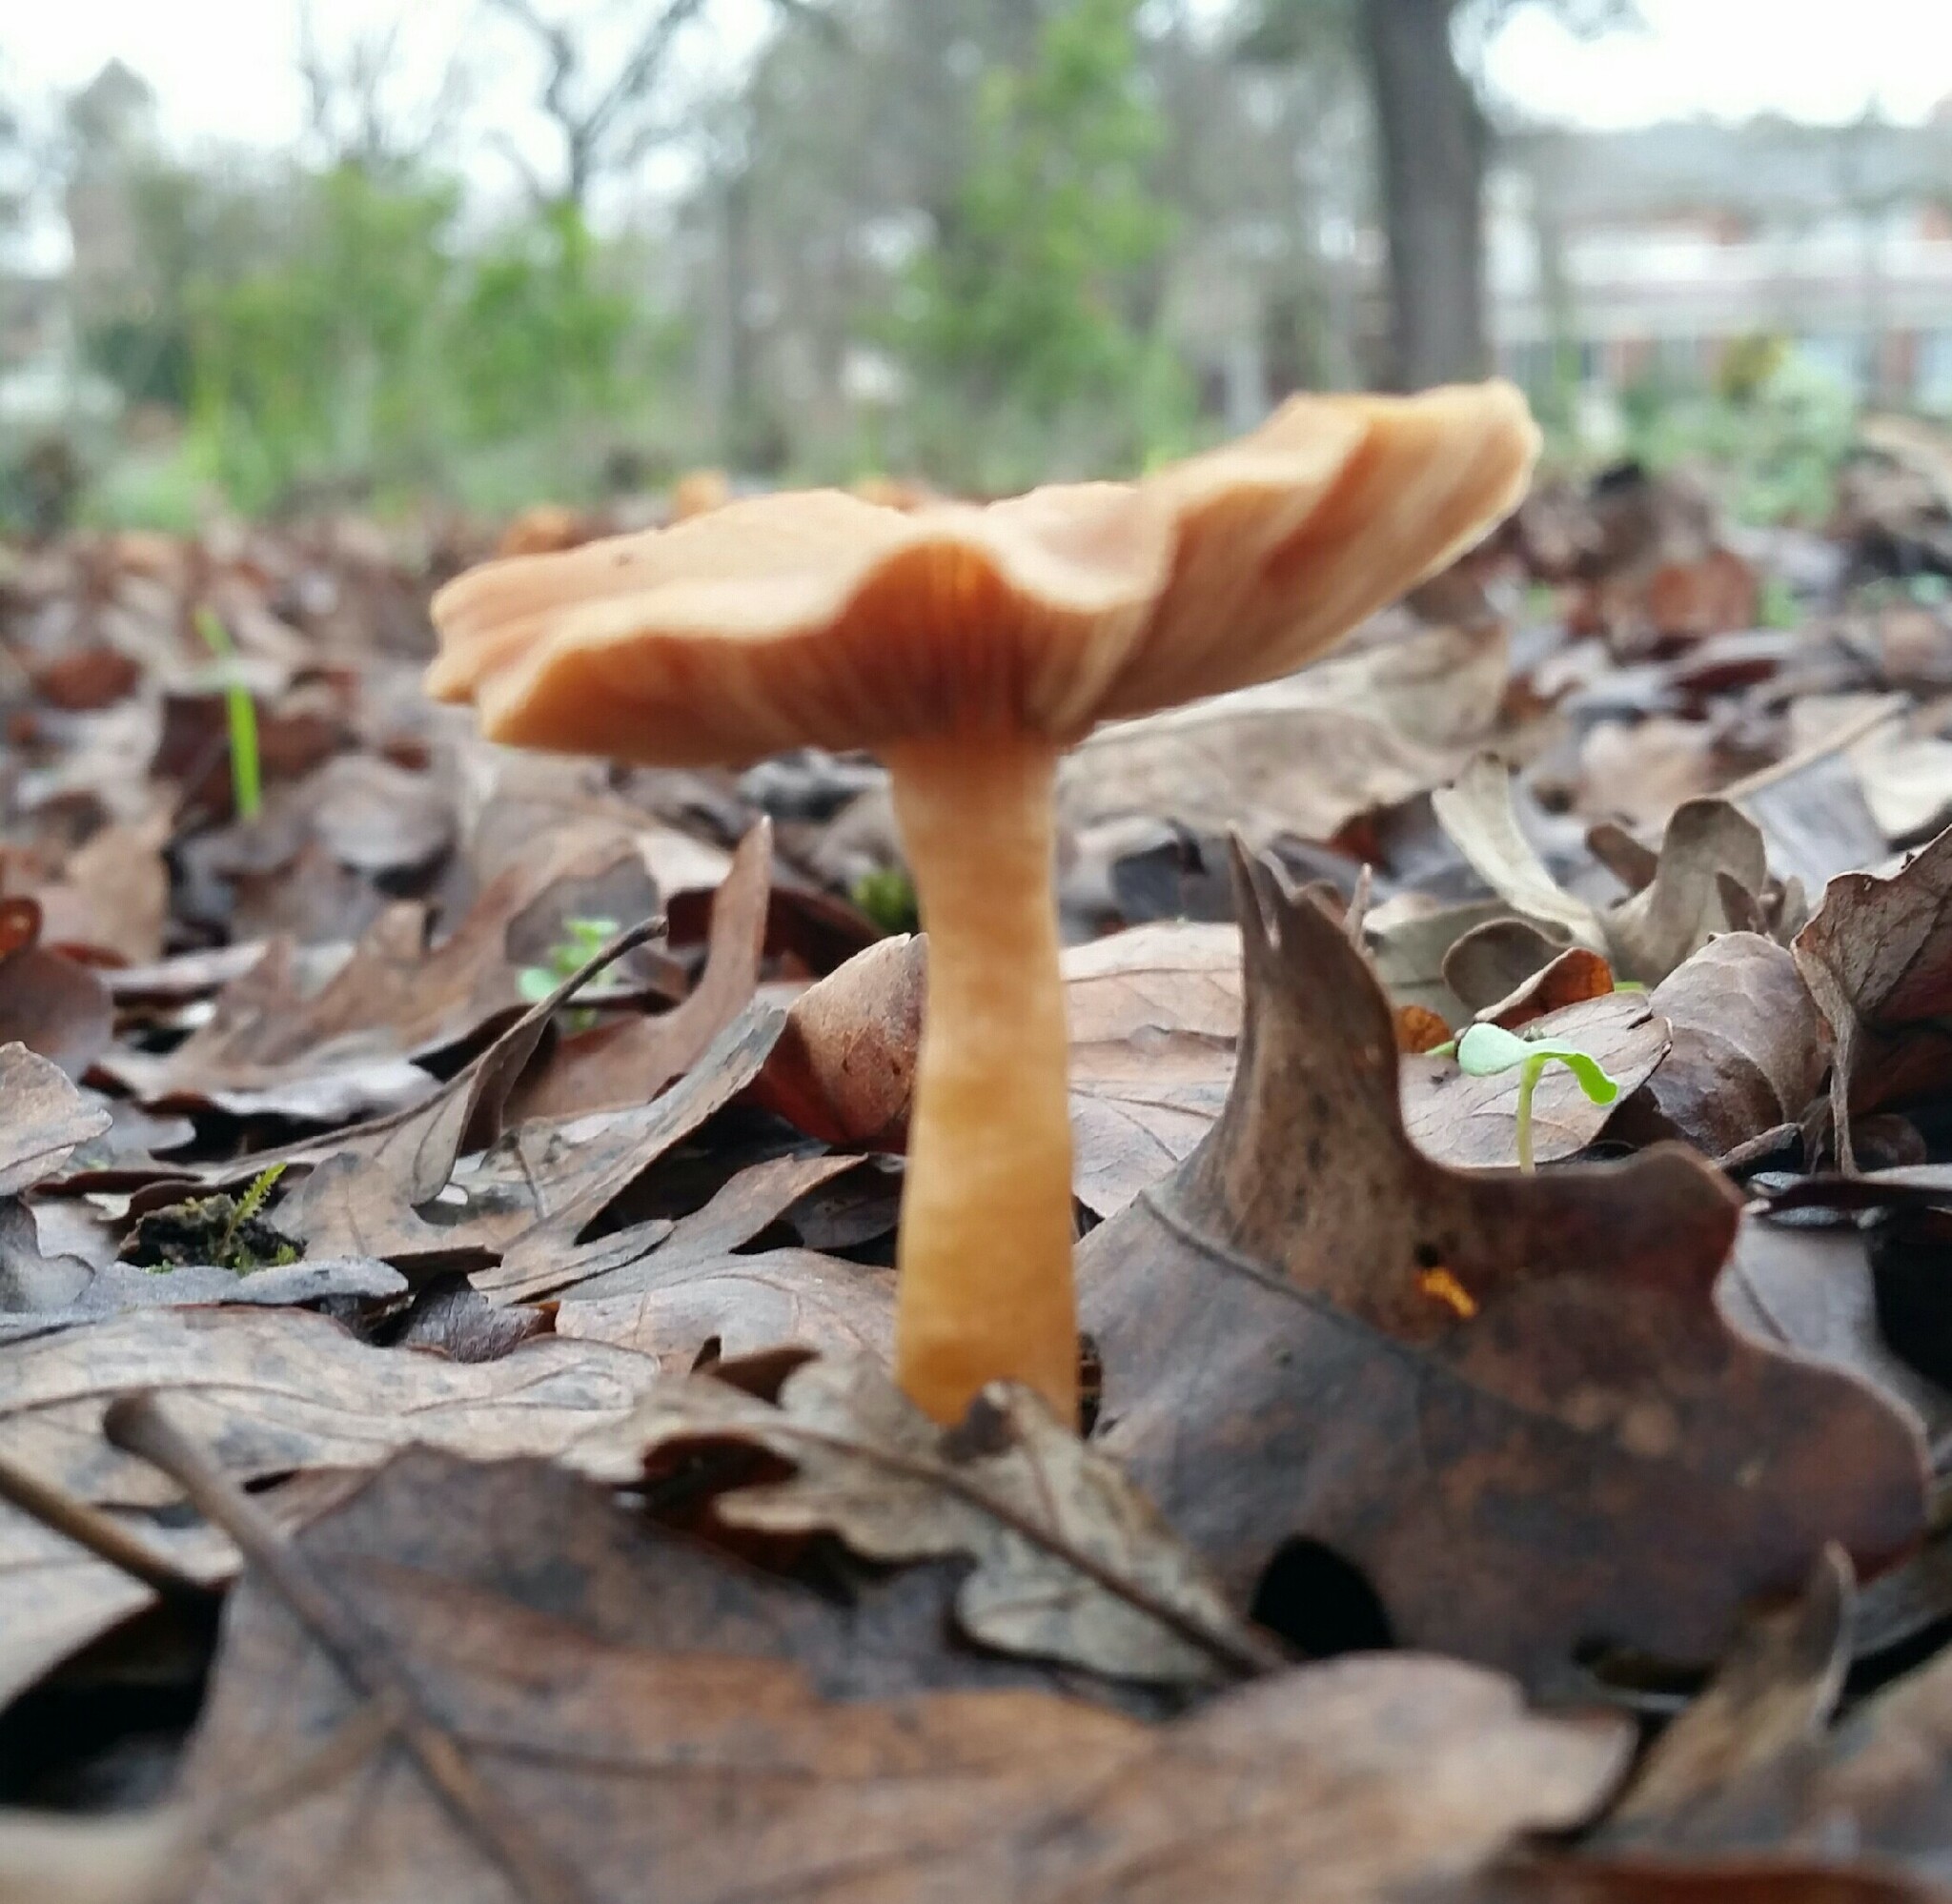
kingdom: Fungi
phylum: Basidiomycota
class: Agaricomycetes
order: Agaricales
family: Tubariaceae
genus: Tubaria
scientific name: Tubaria furfuracea
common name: Scurfy twiglet
